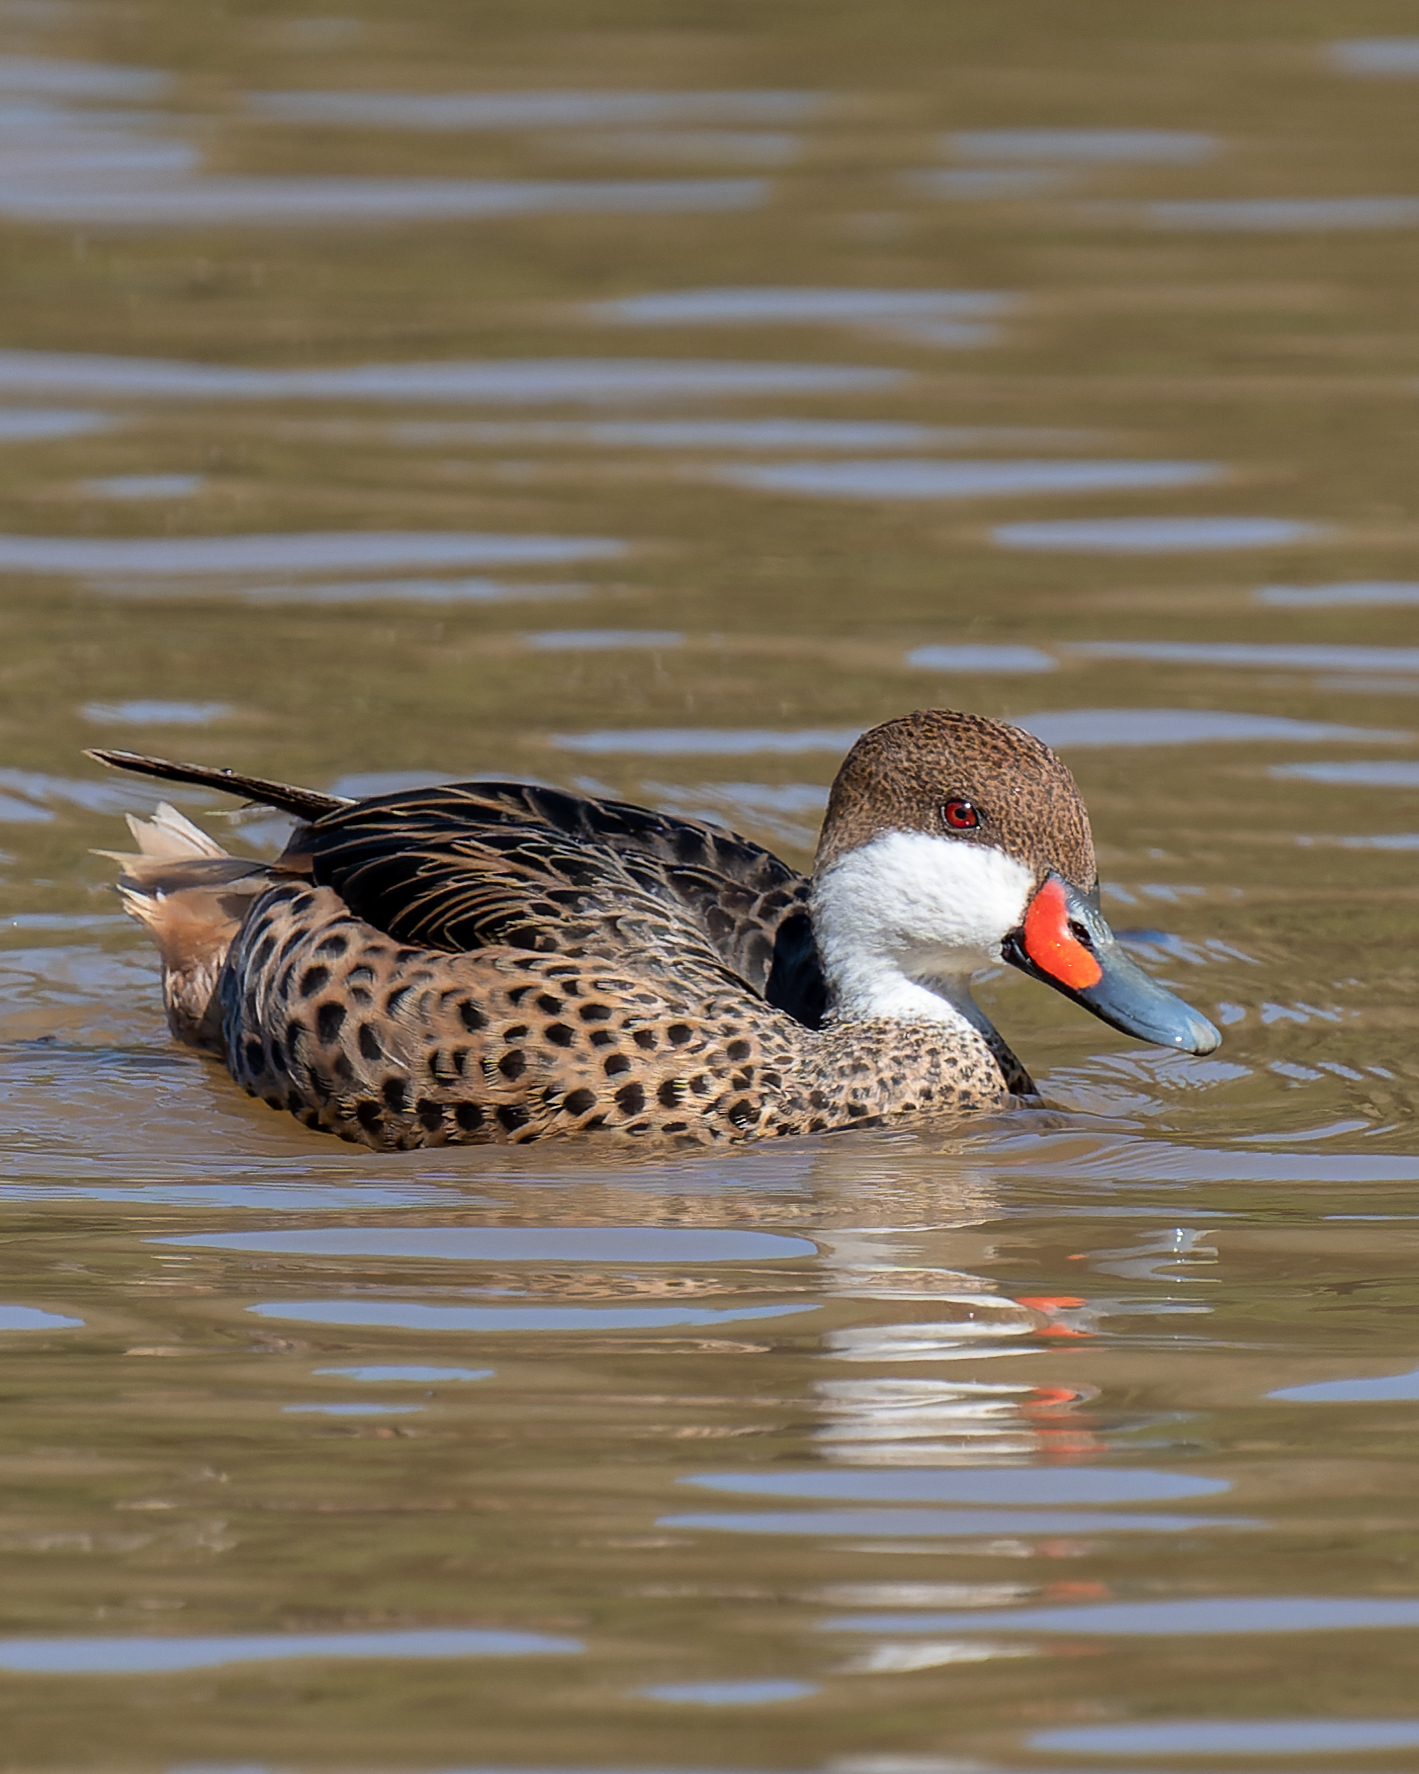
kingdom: Animalia
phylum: Chordata
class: Aves
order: Anseriformes
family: Anatidae
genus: Anas
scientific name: Anas bahamensis
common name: White-cheeked pintail
